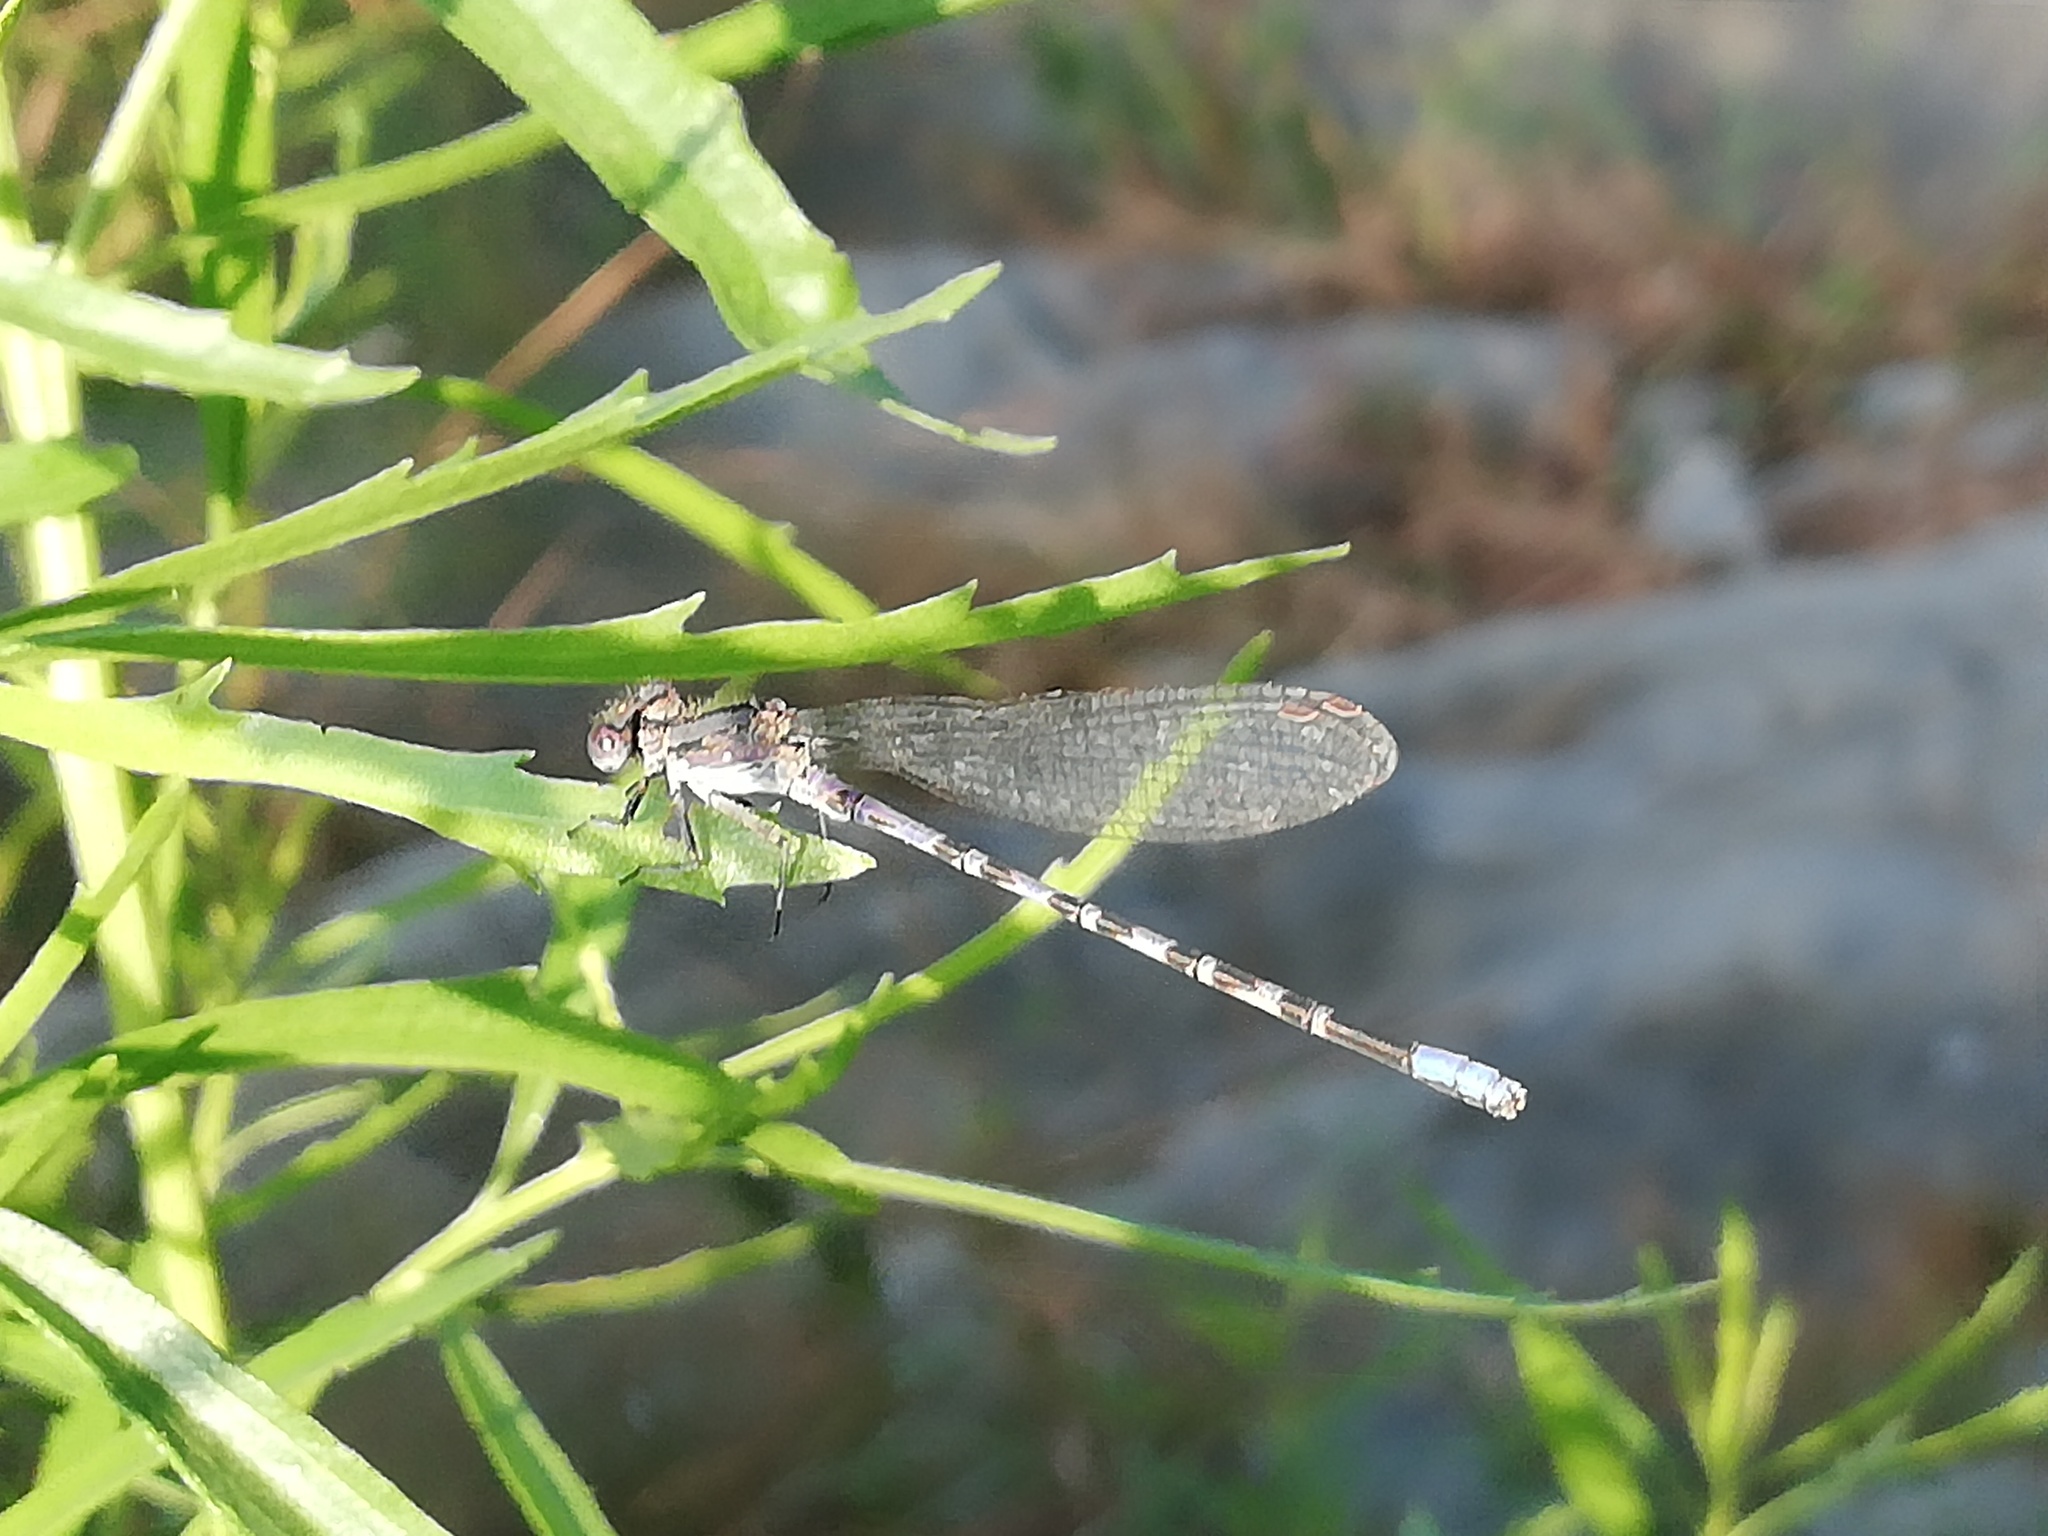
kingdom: Animalia
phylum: Arthropoda
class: Insecta
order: Odonata
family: Coenagrionidae
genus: Argia
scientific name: Argia immunda
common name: Kiowa dancer
